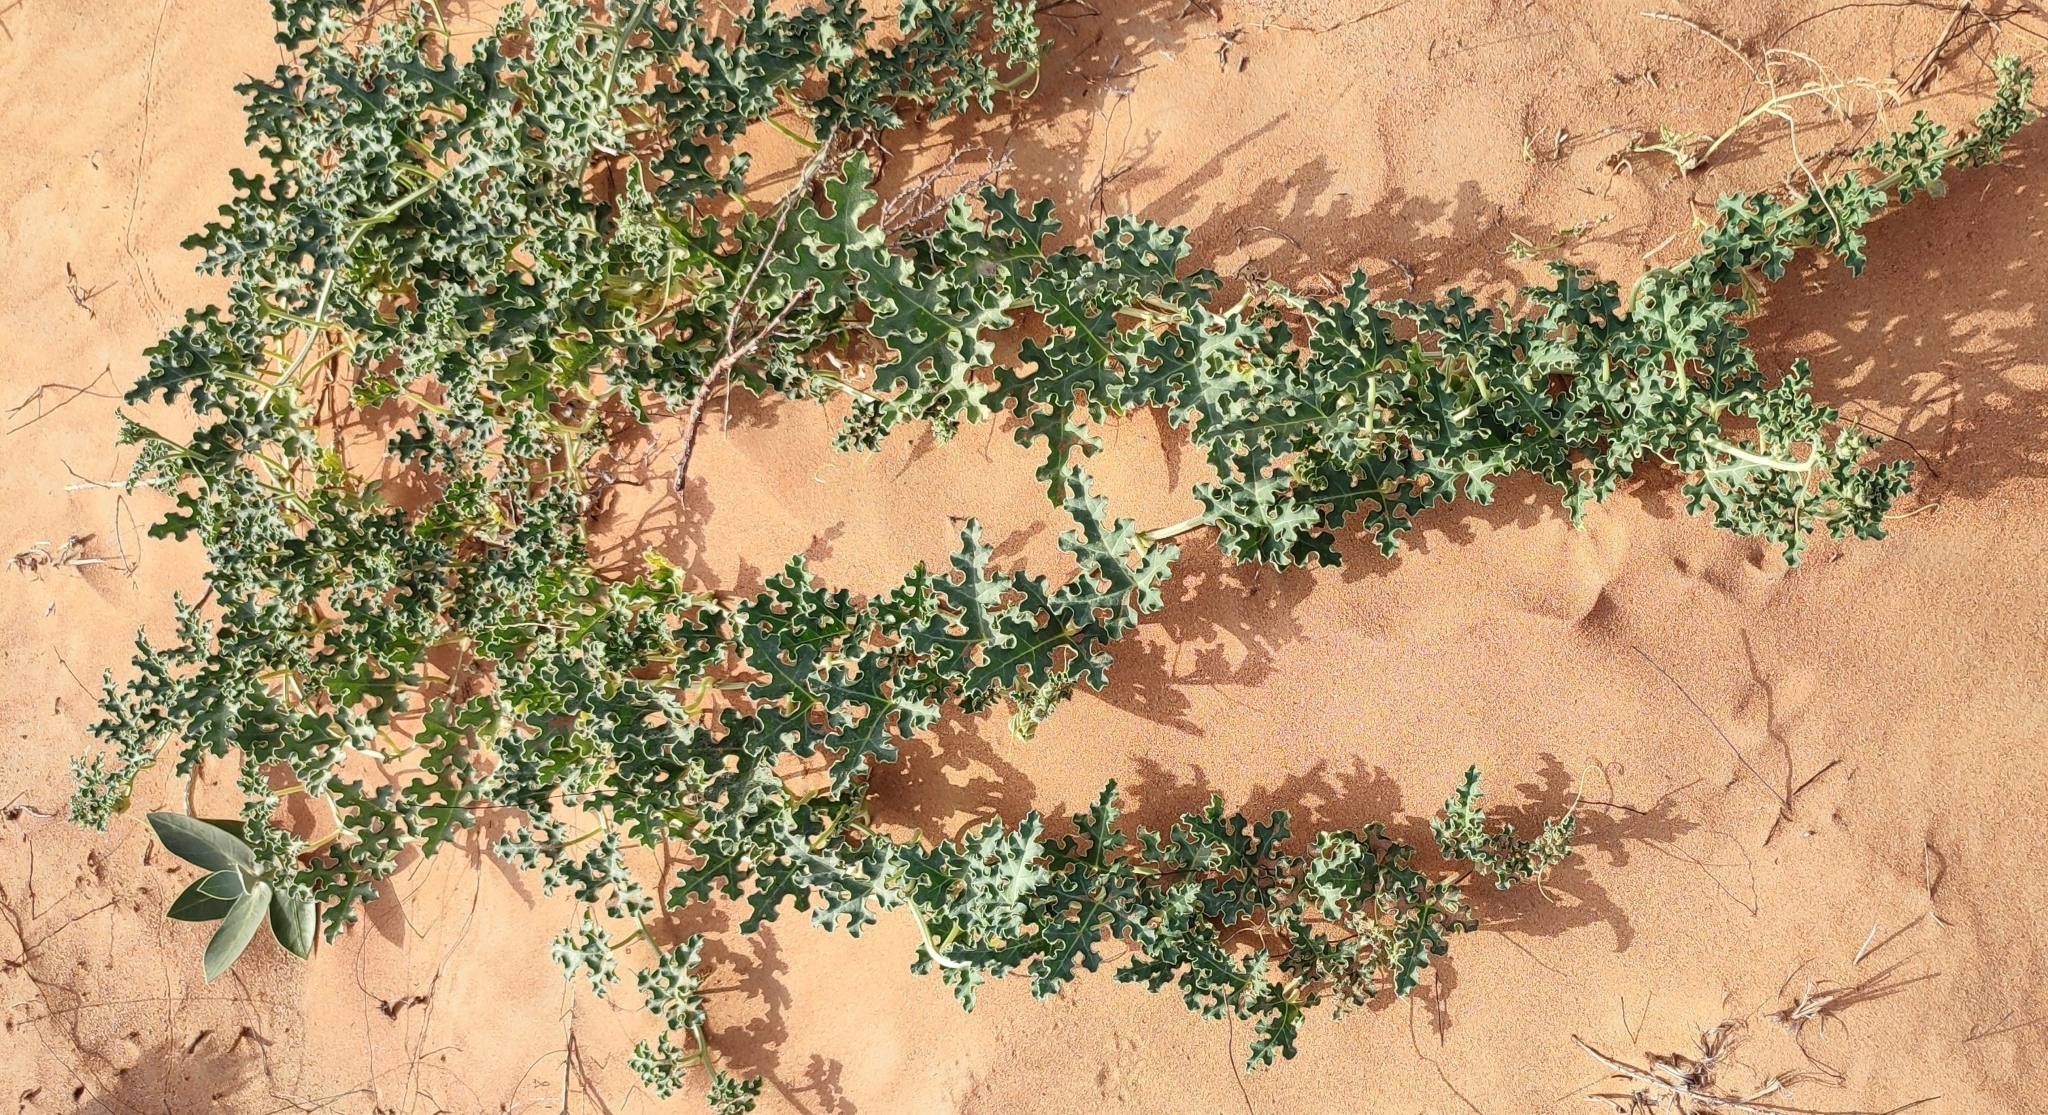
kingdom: Plantae
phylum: Tracheophyta
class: Magnoliopsida
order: Cucurbitales
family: Cucurbitaceae
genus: Citrullus
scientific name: Citrullus colocynthis
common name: Colocynth
